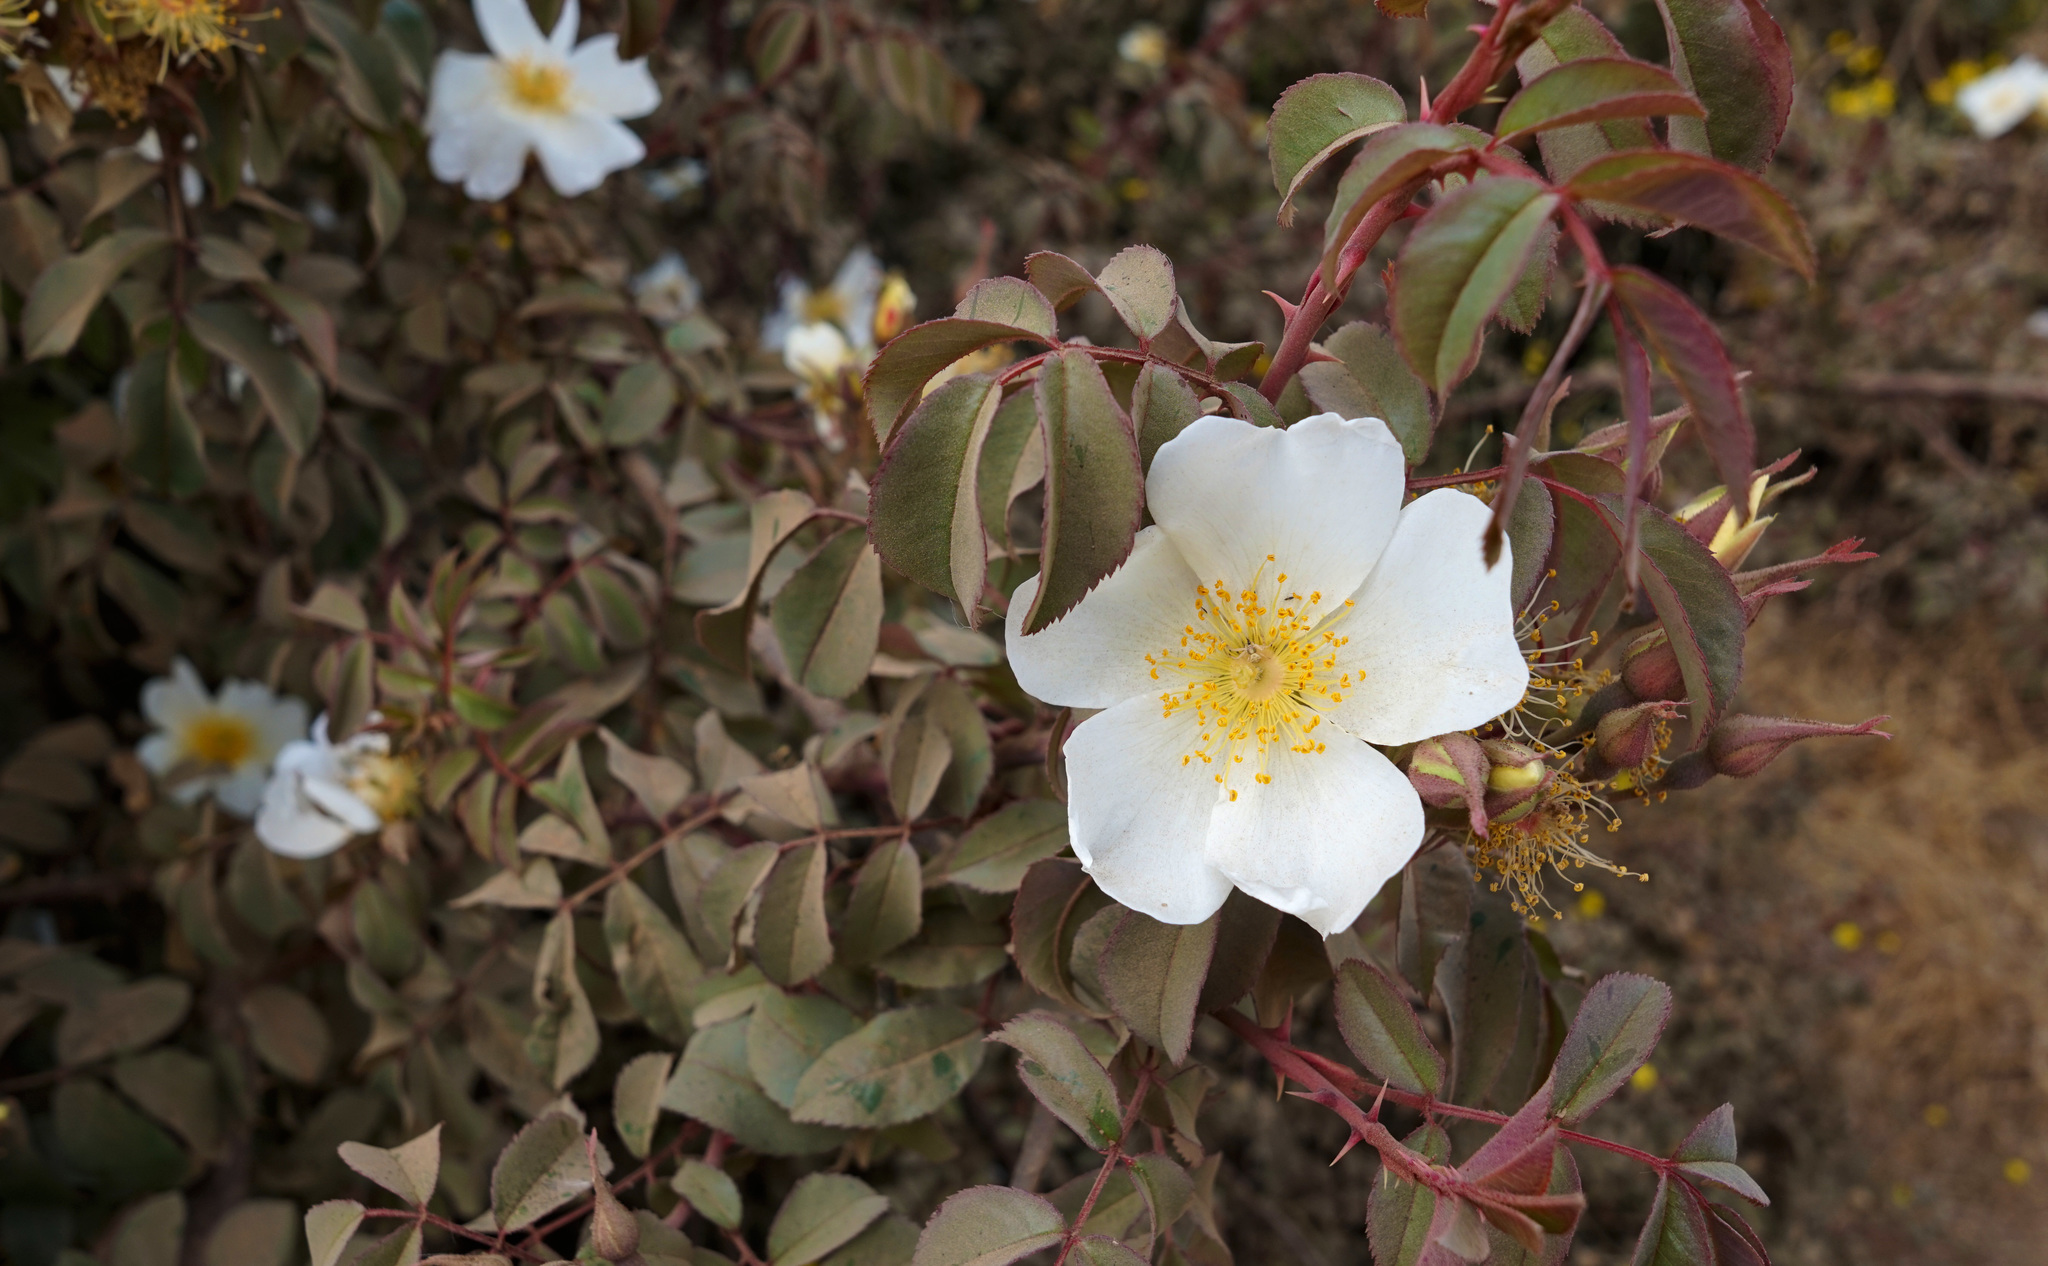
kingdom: Plantae
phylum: Tracheophyta
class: Magnoliopsida
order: Rosales
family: Rosaceae
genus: Rosa
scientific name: Rosa abyssinica
